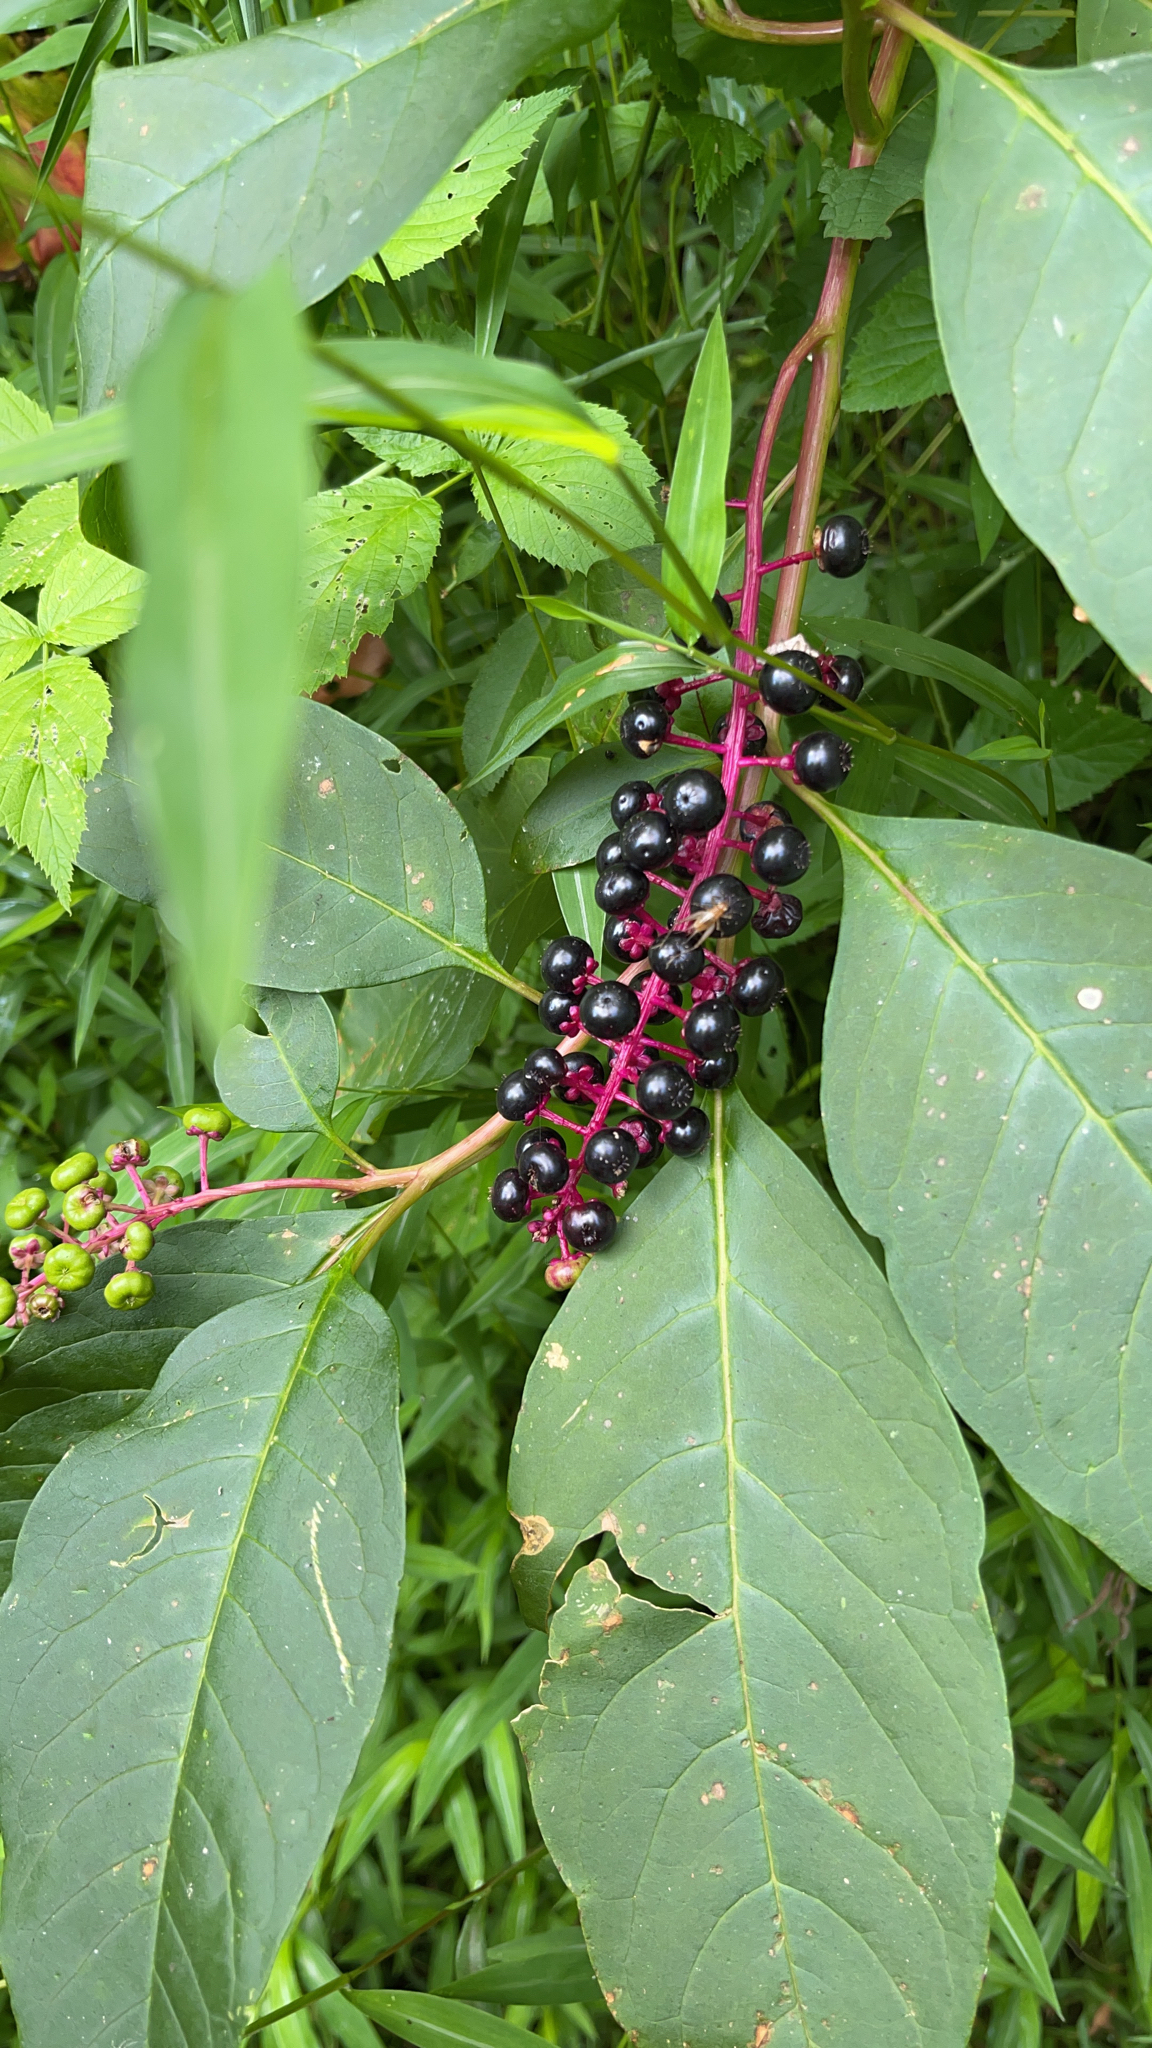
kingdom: Plantae
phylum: Tracheophyta
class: Magnoliopsida
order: Caryophyllales
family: Phytolaccaceae
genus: Phytolacca
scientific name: Phytolacca americana
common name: American pokeweed
